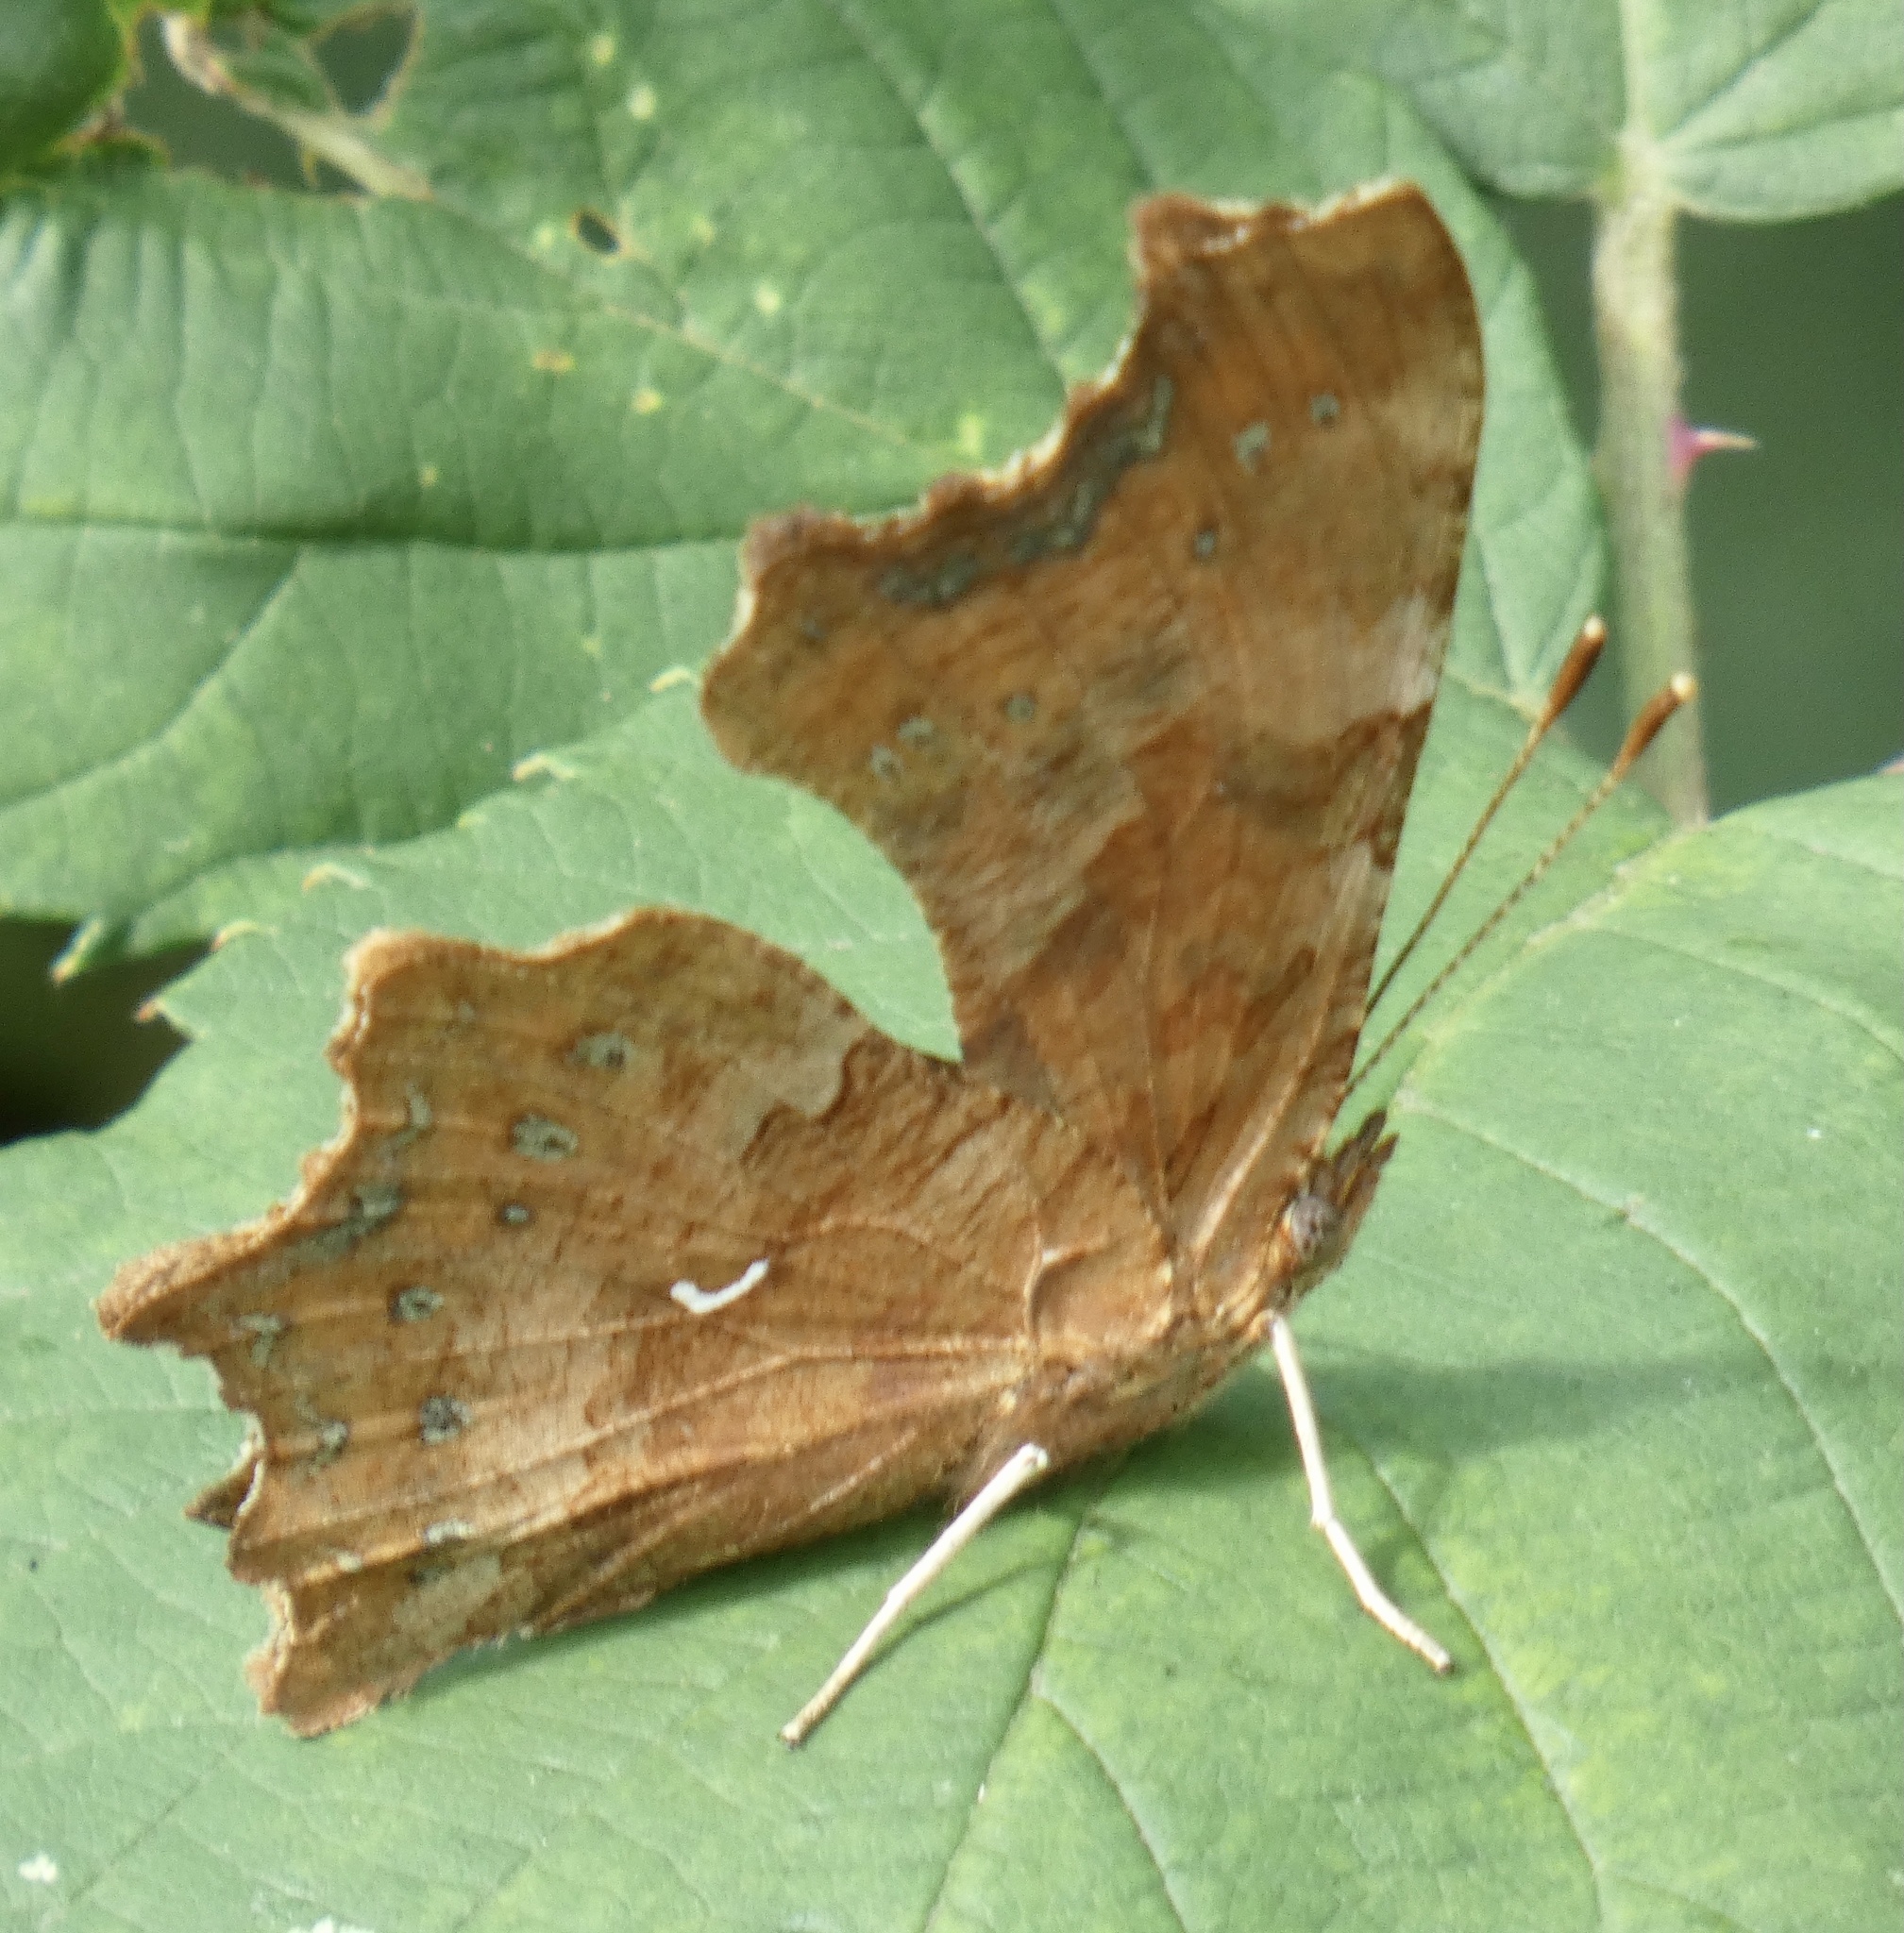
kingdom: Animalia
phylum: Arthropoda
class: Insecta
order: Lepidoptera
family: Nymphalidae
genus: Polygonia
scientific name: Polygonia c-album
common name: Comma
